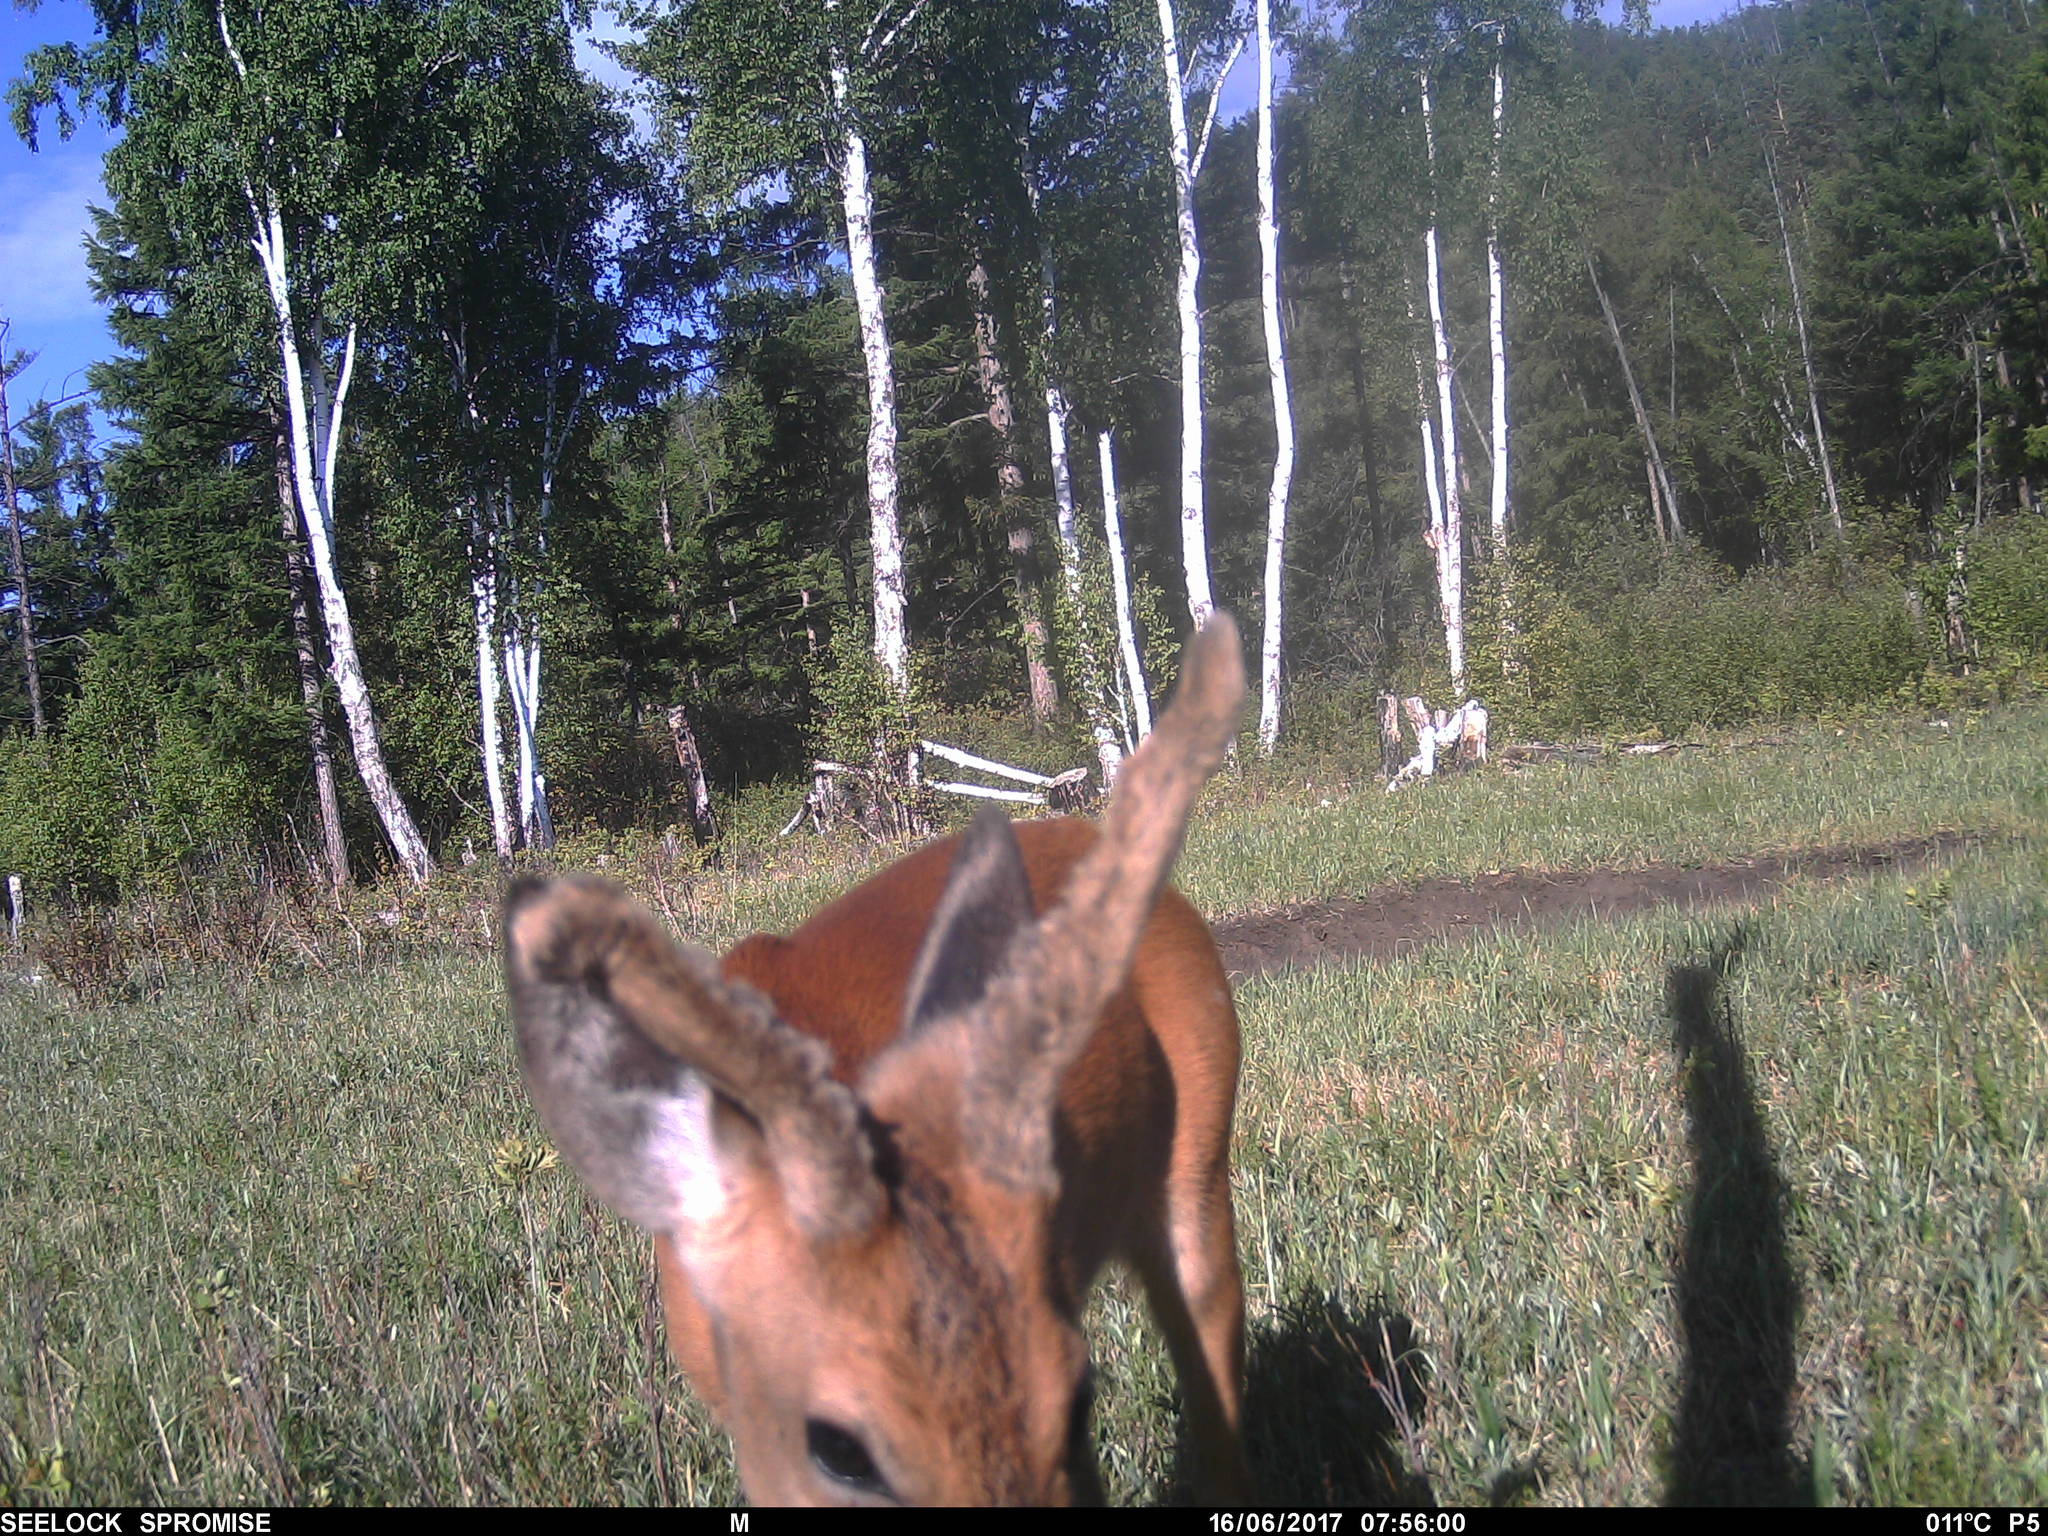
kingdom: Animalia
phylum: Chordata
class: Mammalia
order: Artiodactyla
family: Cervidae
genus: Capreolus
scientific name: Capreolus pygargus
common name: Siberian roe
